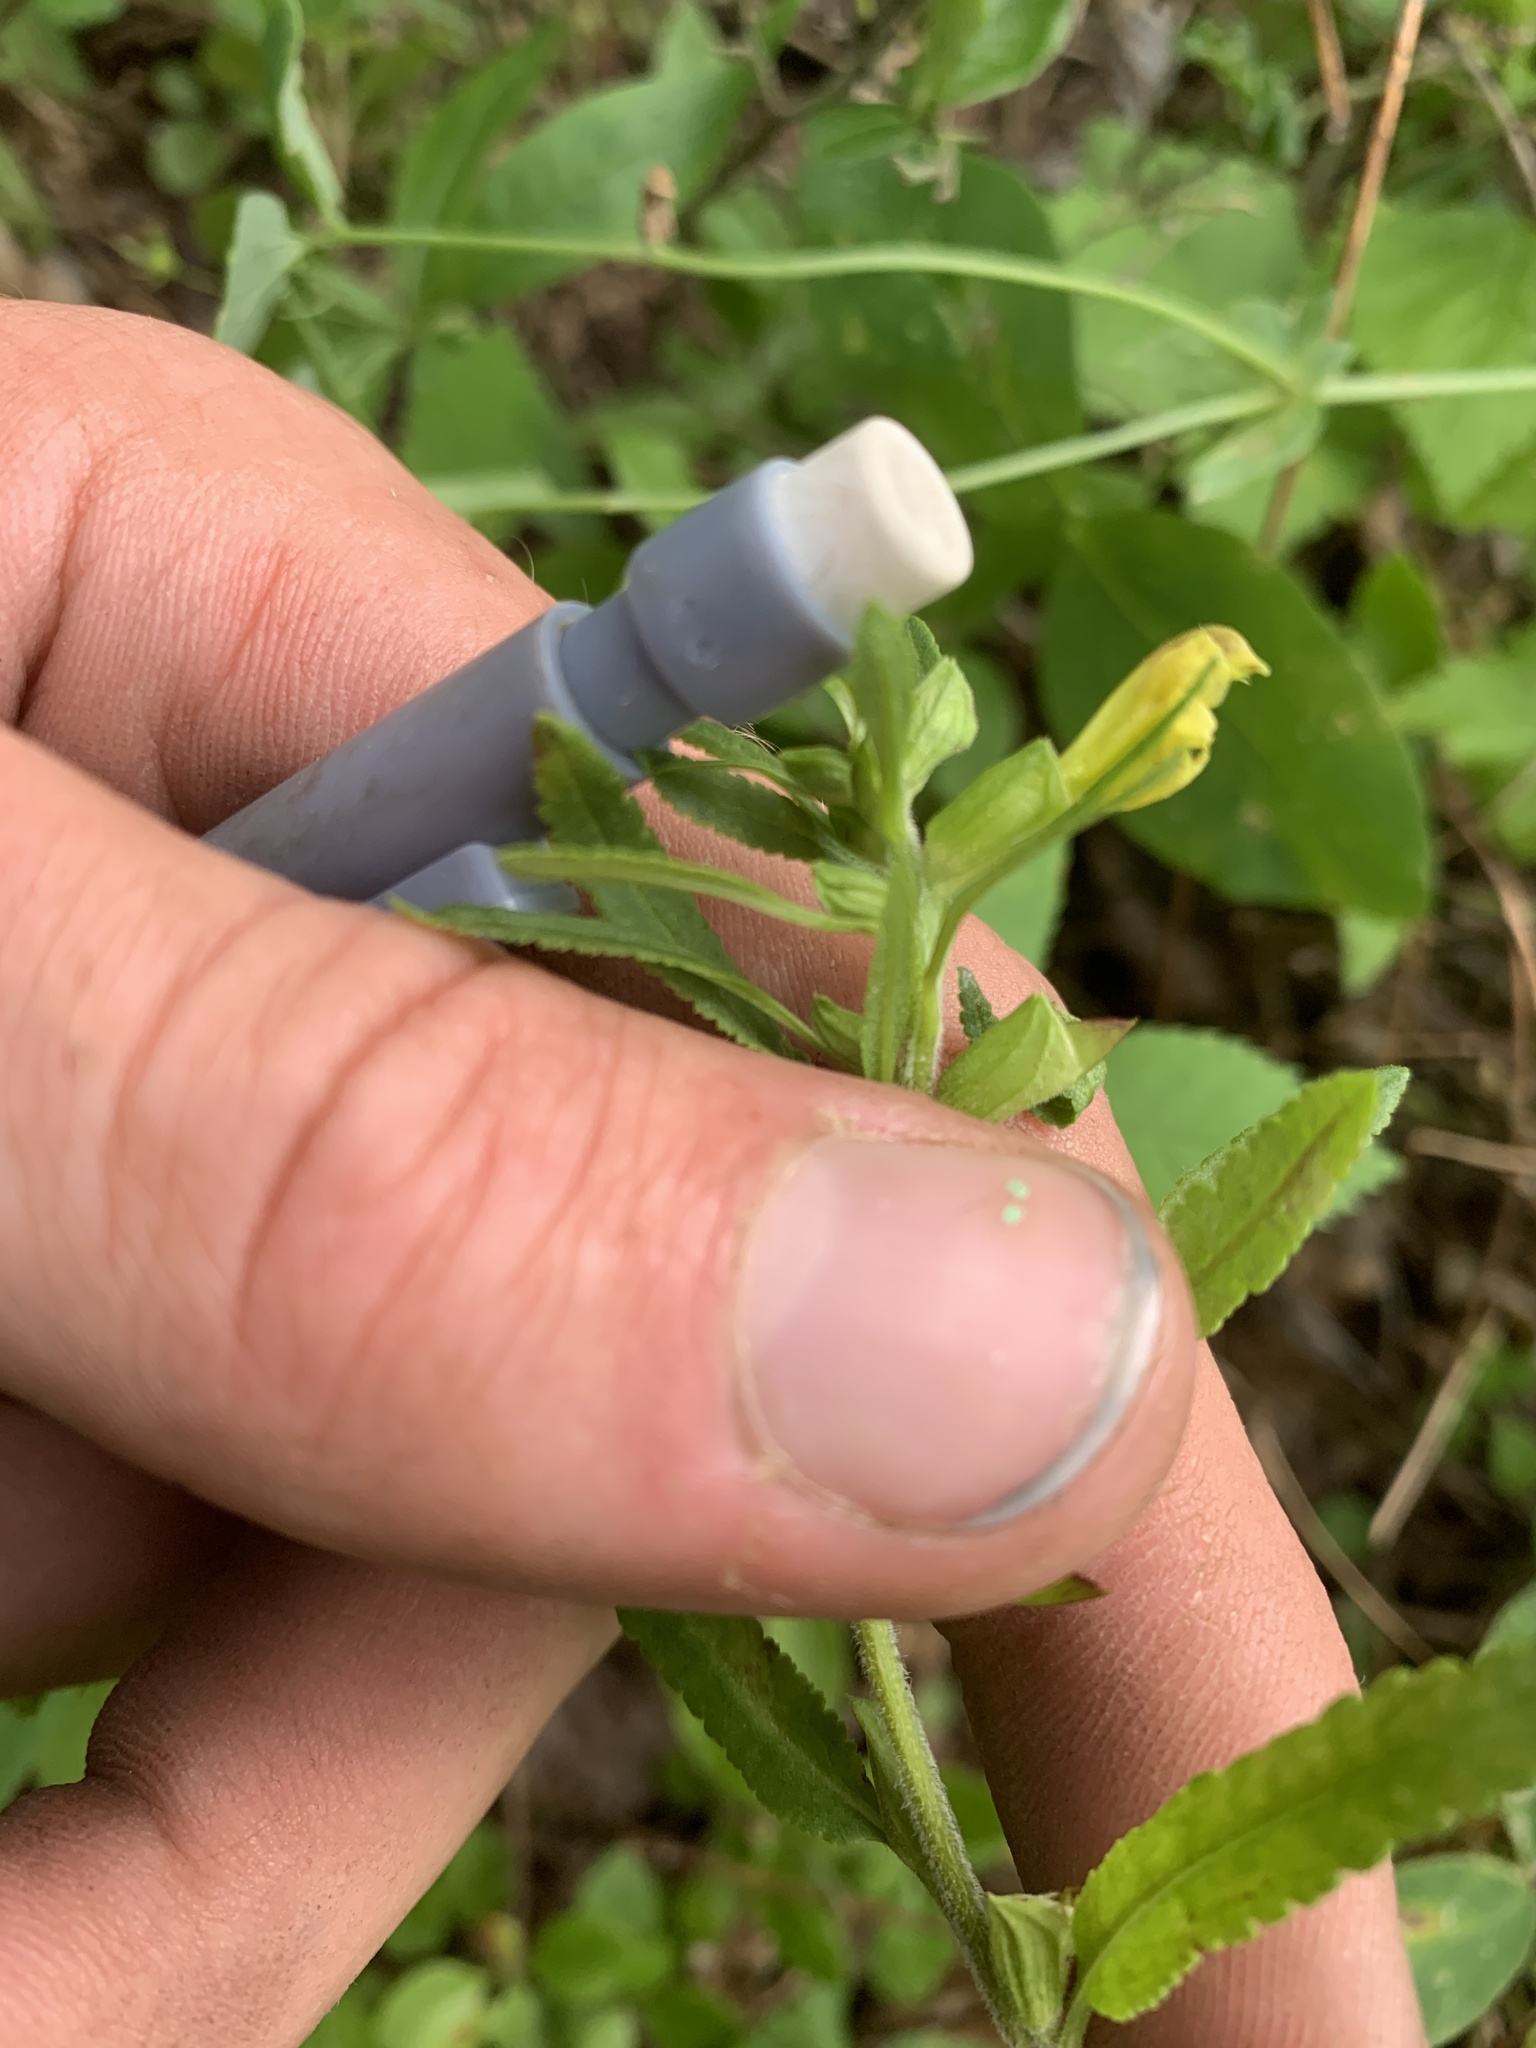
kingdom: Plantae
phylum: Tracheophyta
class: Magnoliopsida
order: Lamiales
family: Orobanchaceae
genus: Pedicularis
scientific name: Pedicularis labradorica
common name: Labrador lousewort
